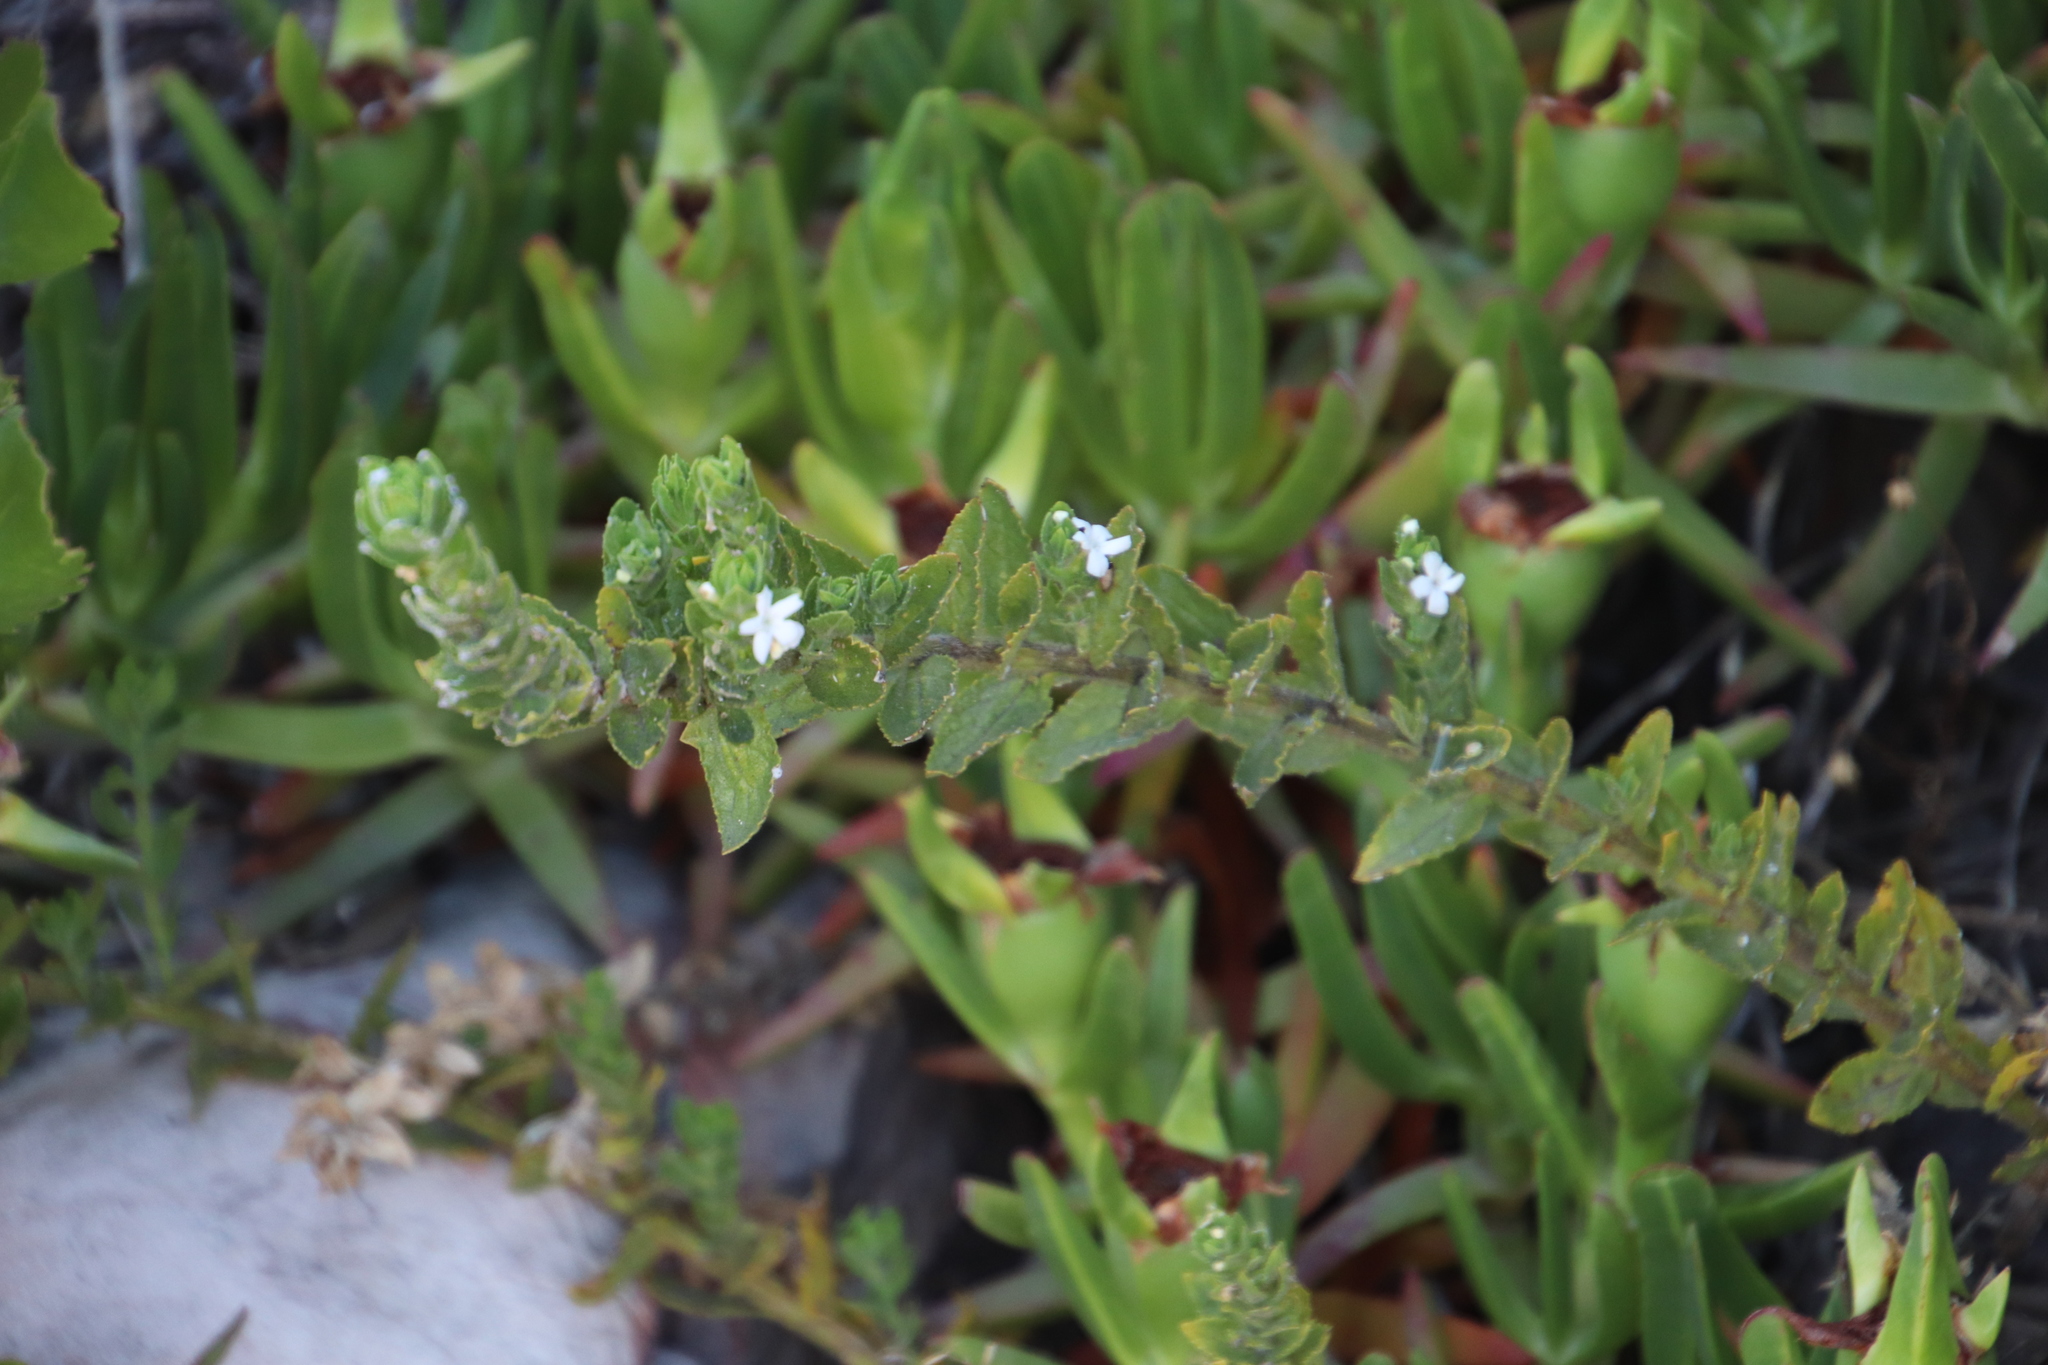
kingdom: Plantae
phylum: Tracheophyta
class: Magnoliopsida
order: Lamiales
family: Scrophulariaceae
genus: Oftia
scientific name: Oftia africana
